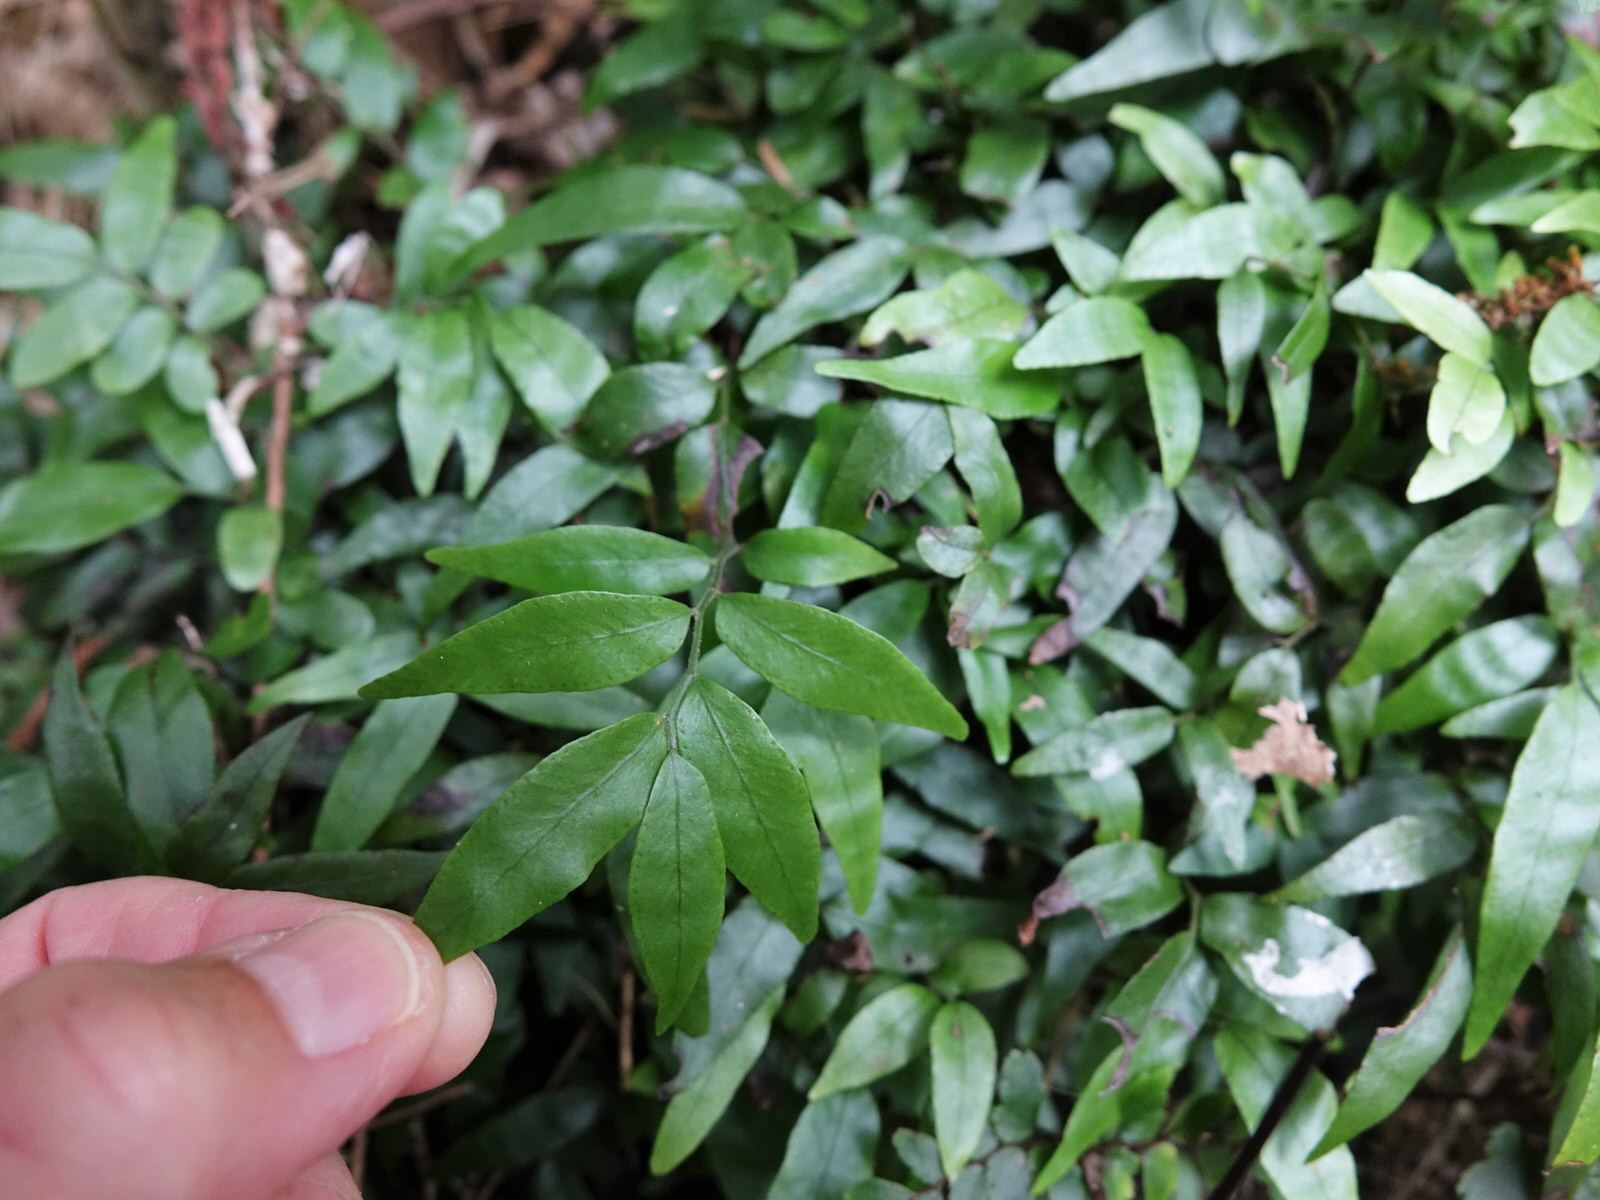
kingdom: Plantae
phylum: Tracheophyta
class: Polypodiopsida
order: Polypodiales
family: Tectariaceae
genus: Arthropteris
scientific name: Arthropteris tenella
